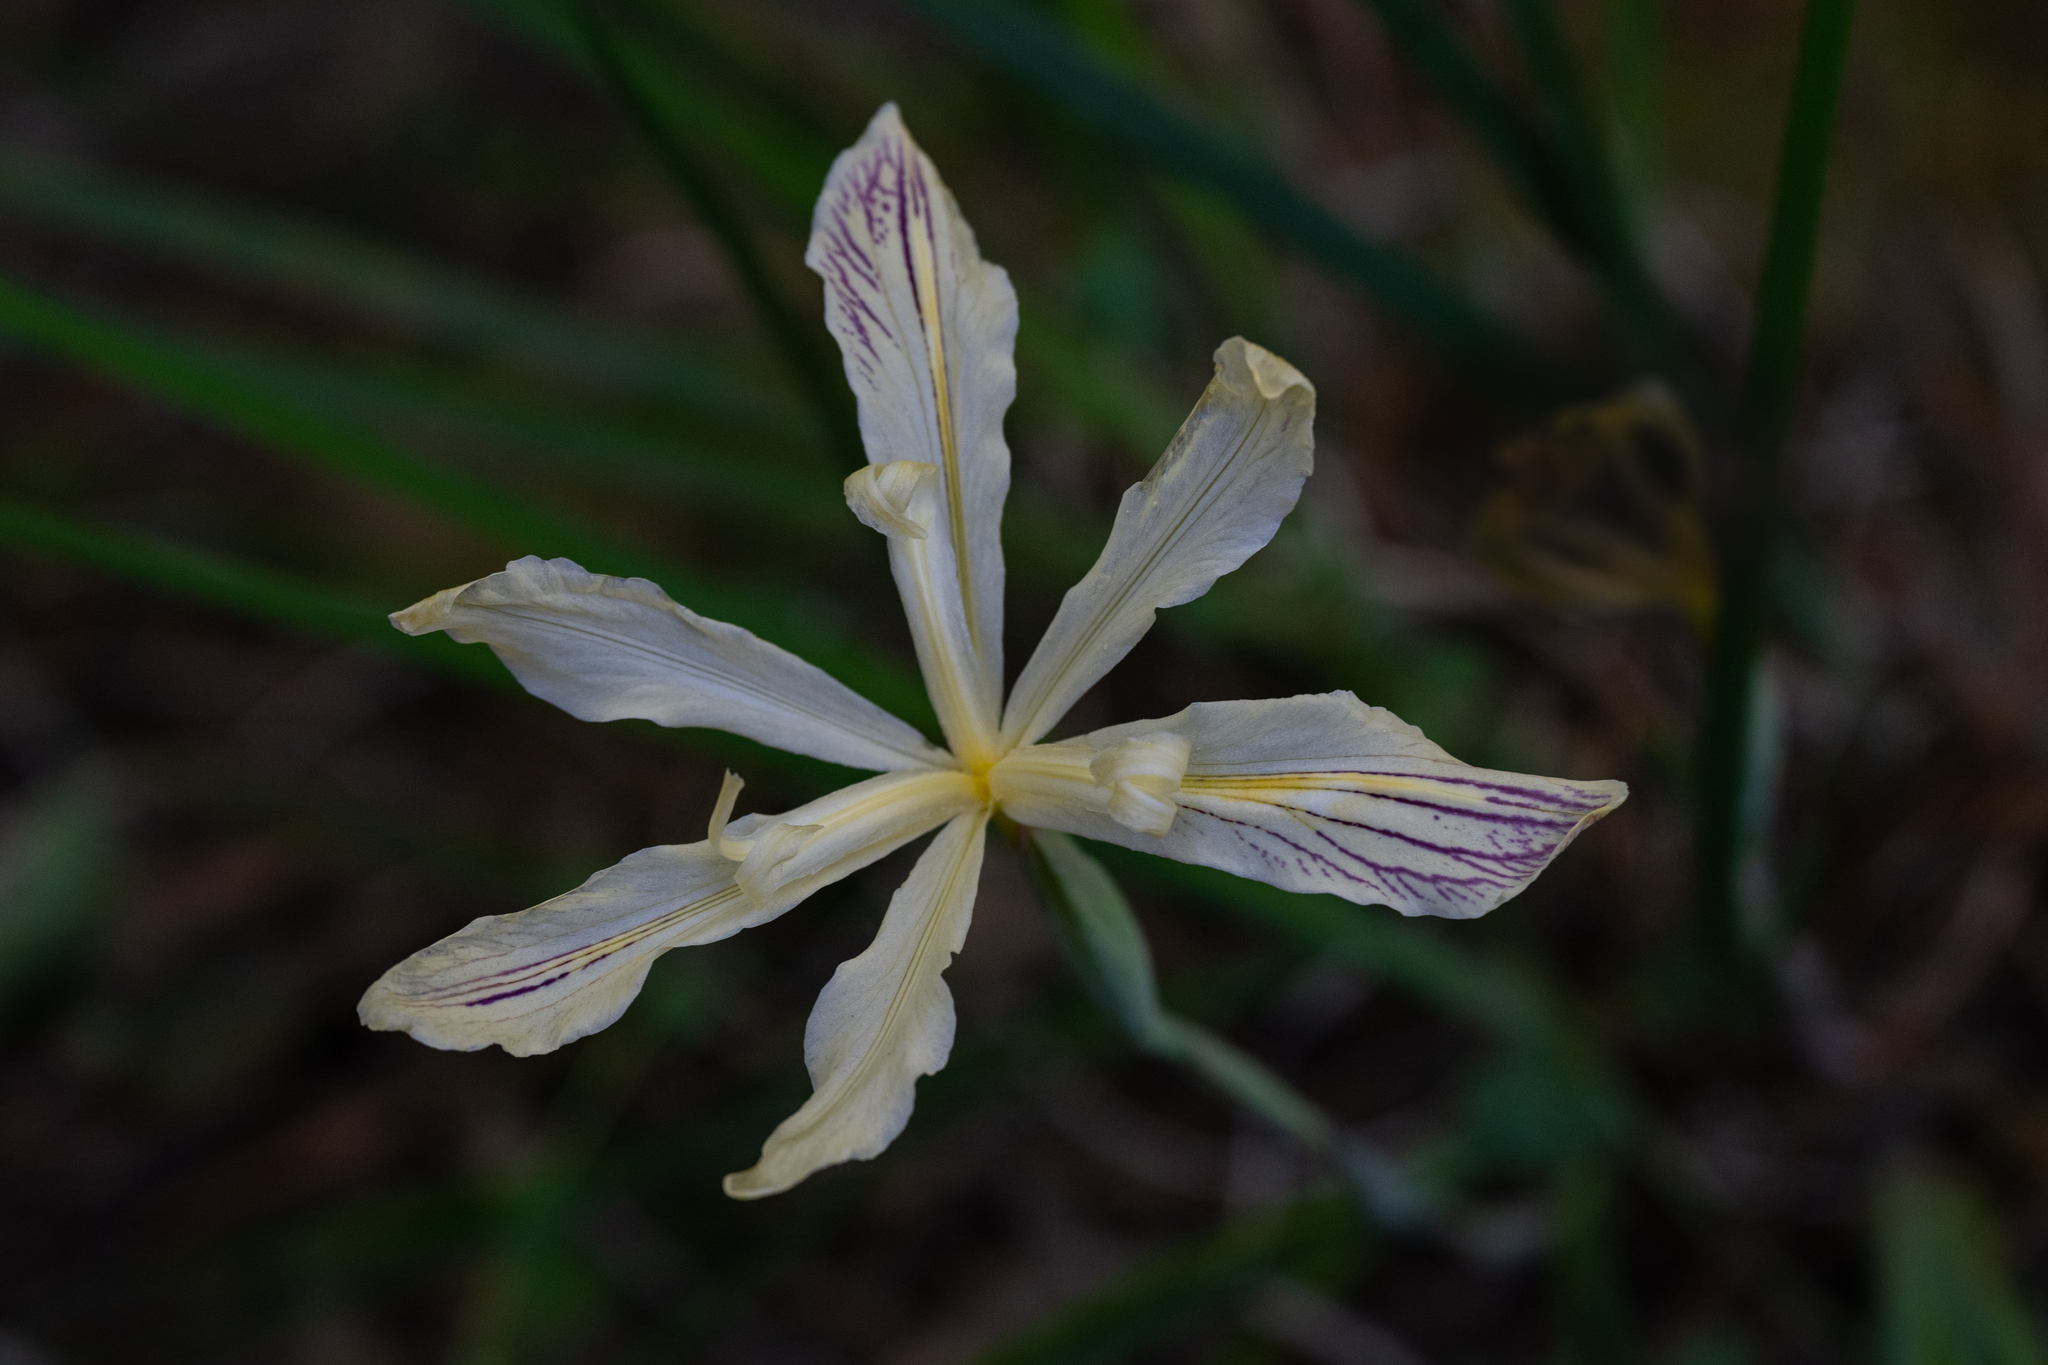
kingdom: Plantae
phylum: Tracheophyta
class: Liliopsida
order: Asparagales
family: Iridaceae
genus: Iris
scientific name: Iris purdyi
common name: Purdy's iris
